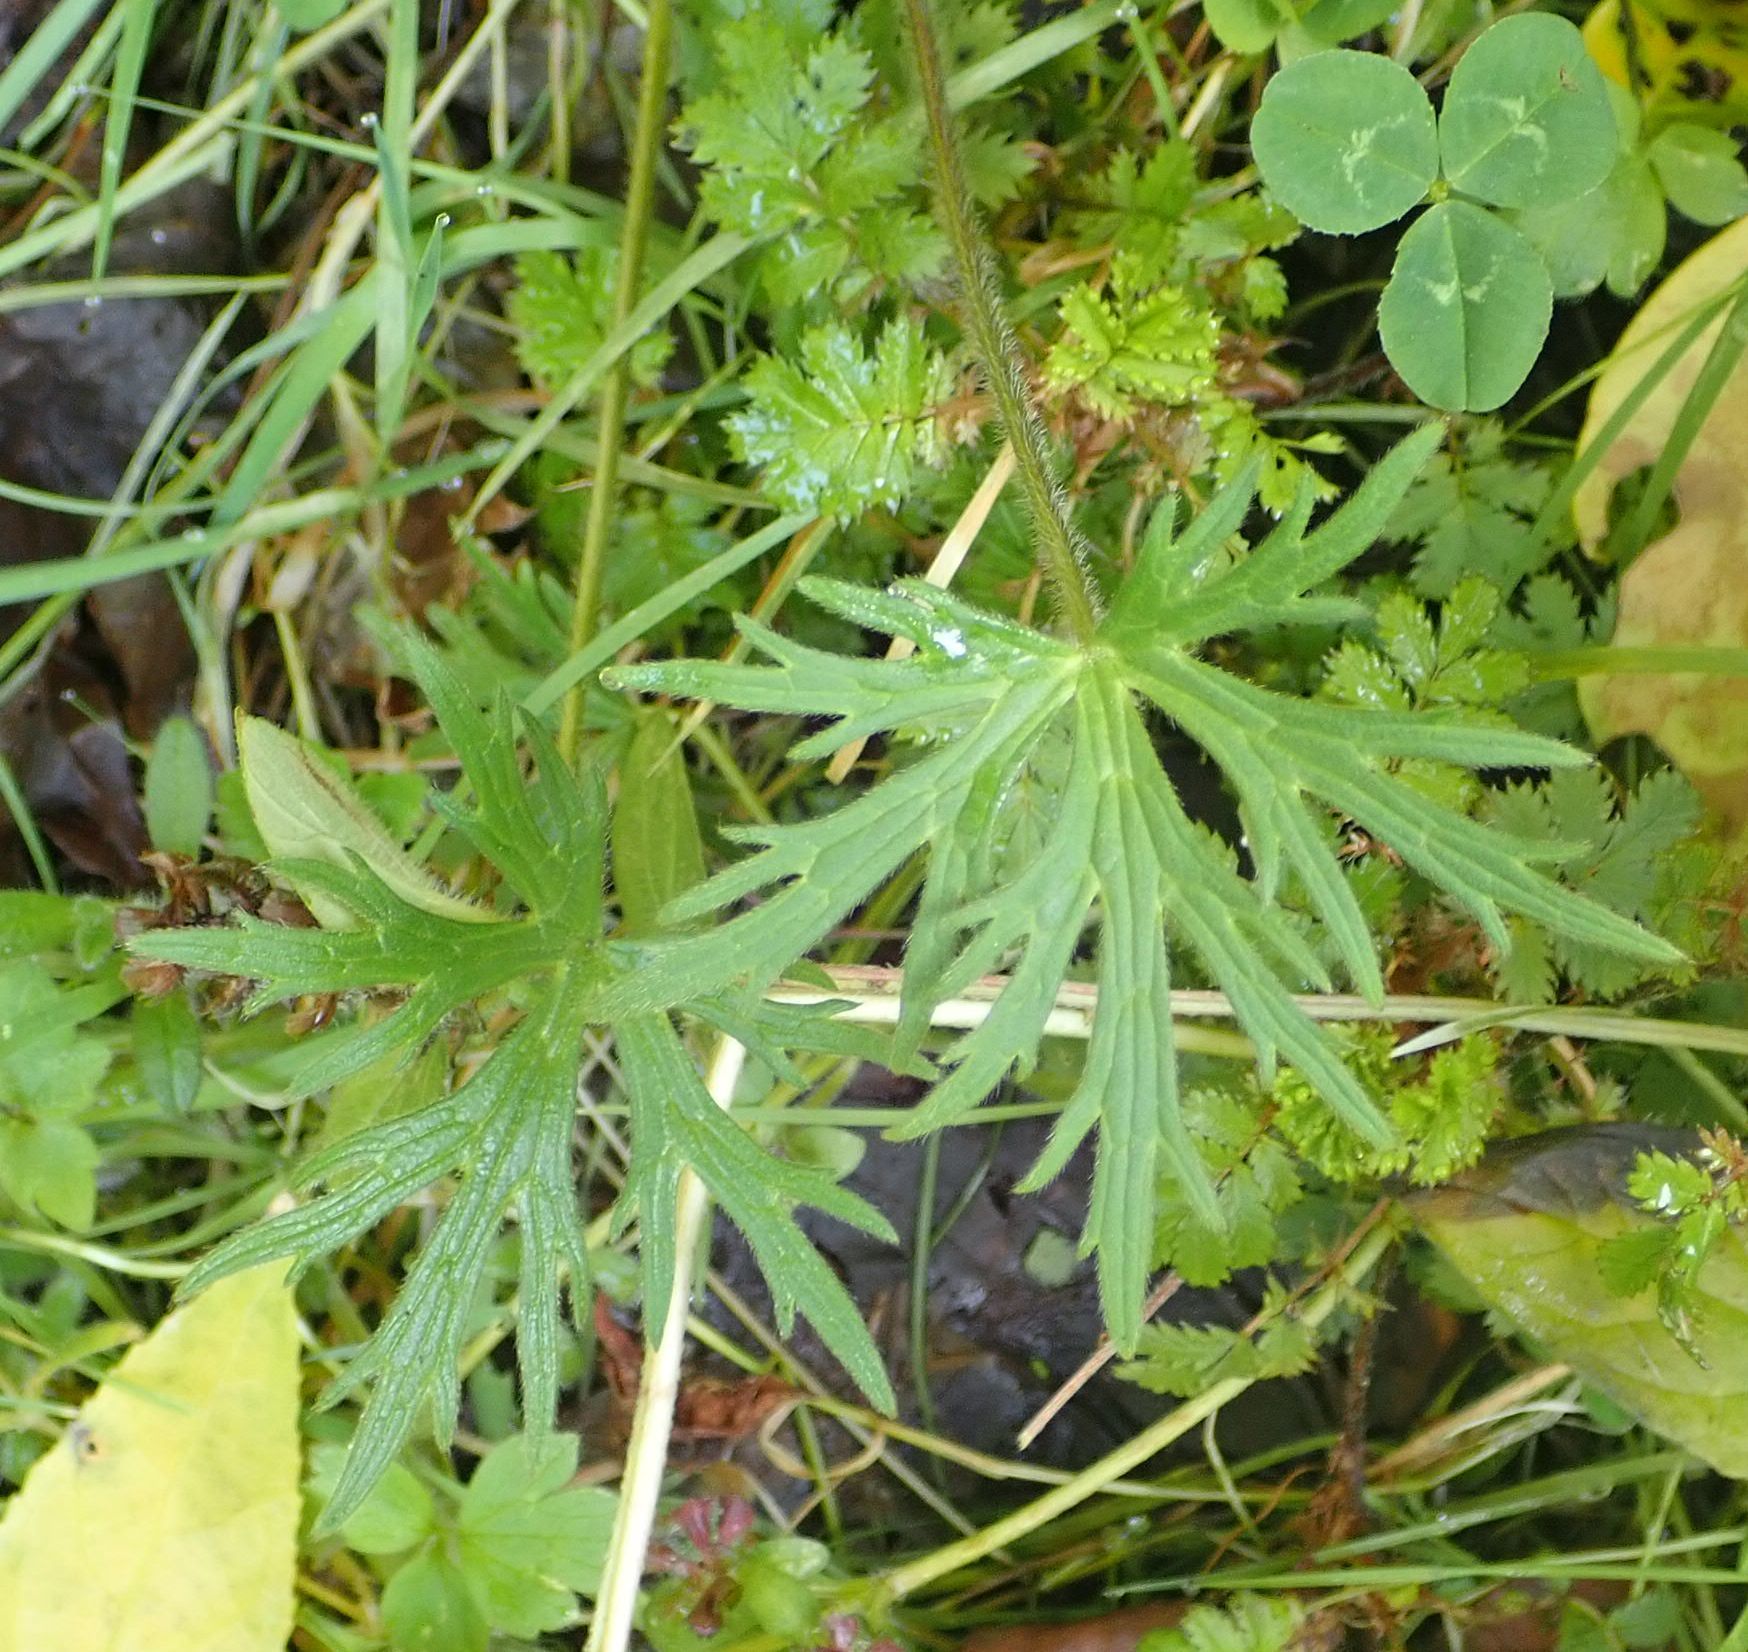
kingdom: Plantae
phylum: Tracheophyta
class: Magnoliopsida
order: Ranunculales
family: Ranunculaceae
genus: Ranunculus
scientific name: Ranunculus acris
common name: Meadow buttercup
